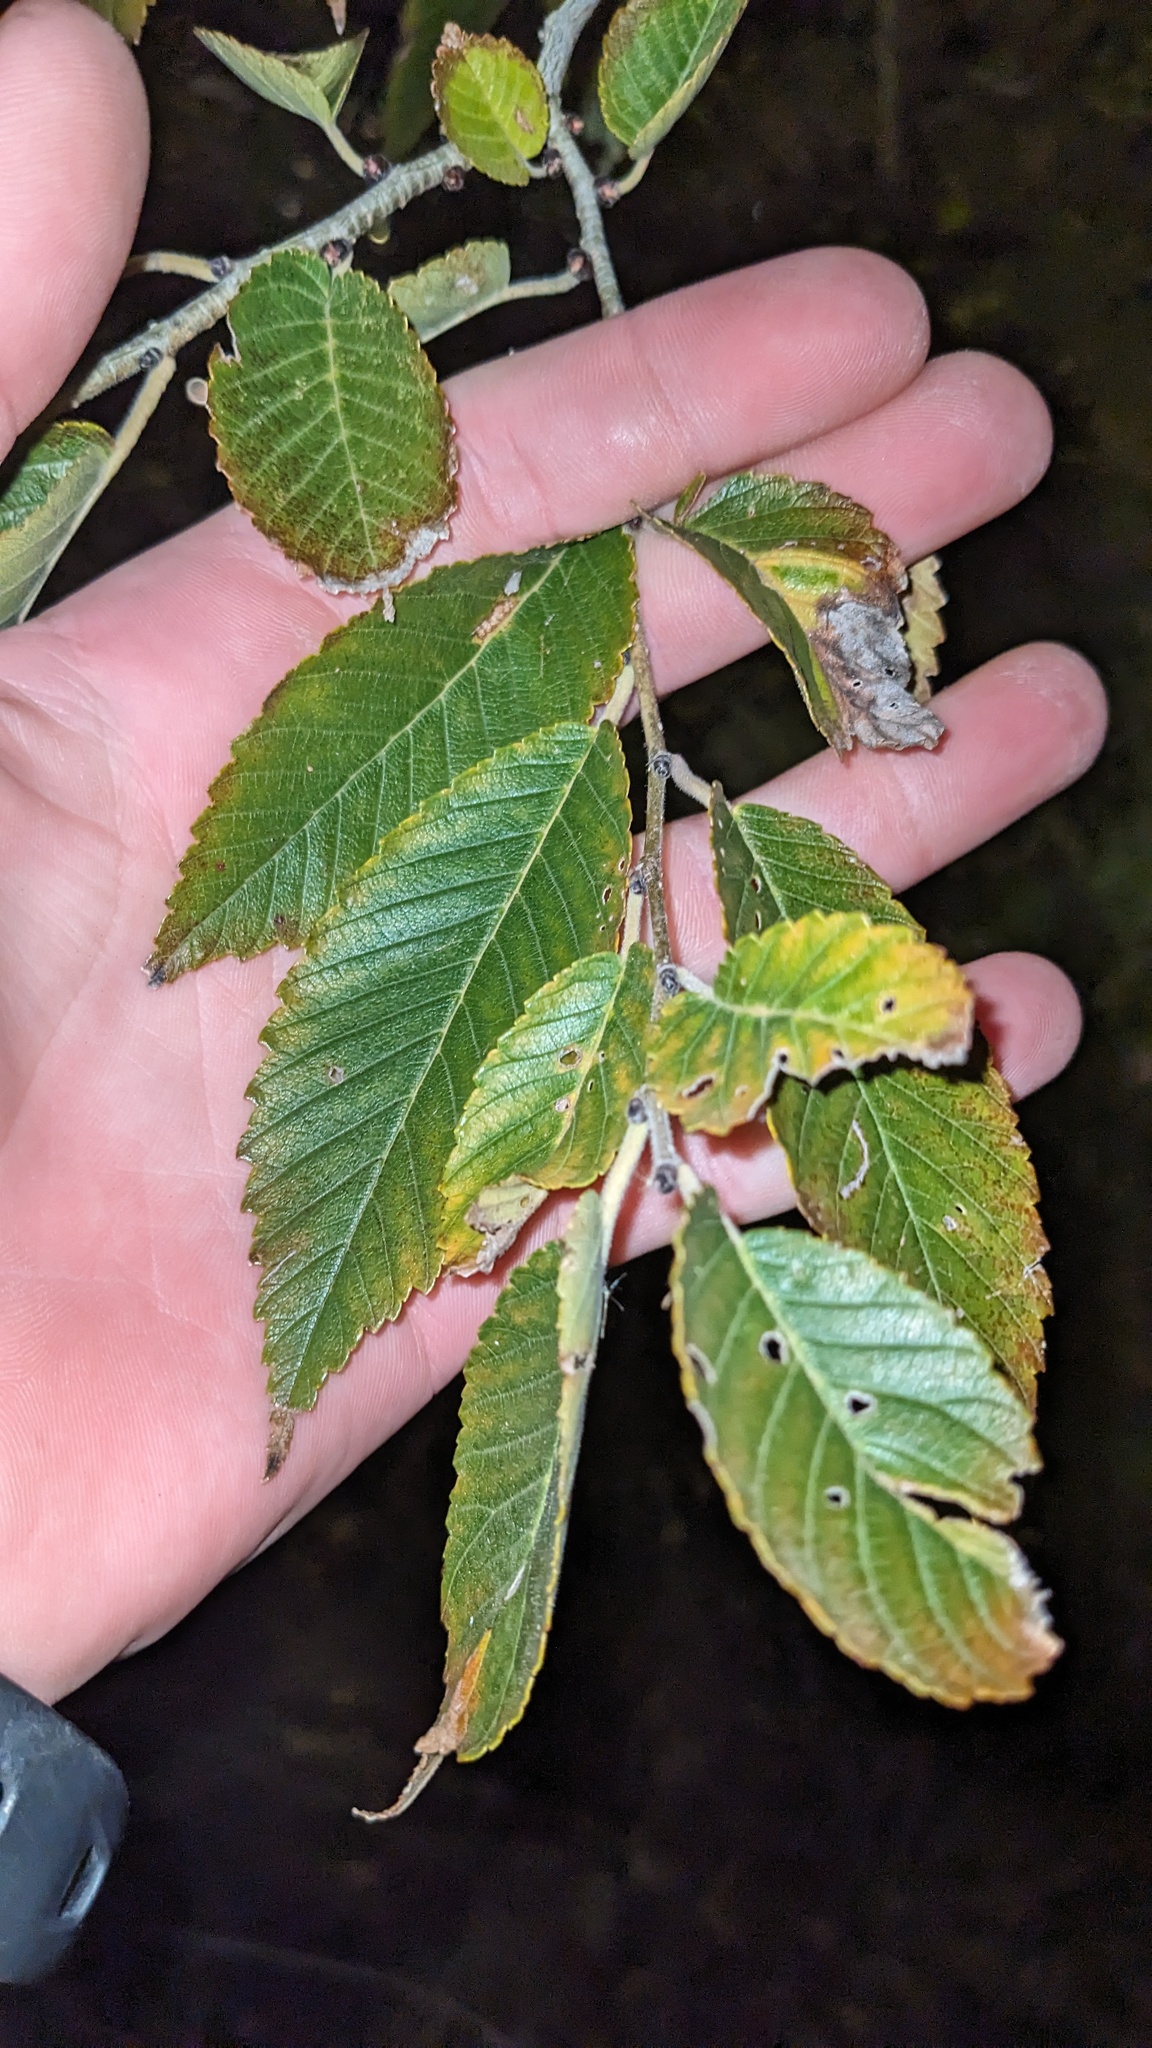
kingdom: Plantae
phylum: Tracheophyta
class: Magnoliopsida
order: Rosales
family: Ulmaceae
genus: Ulmus
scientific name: Ulmus pumila
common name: Siberian elm
